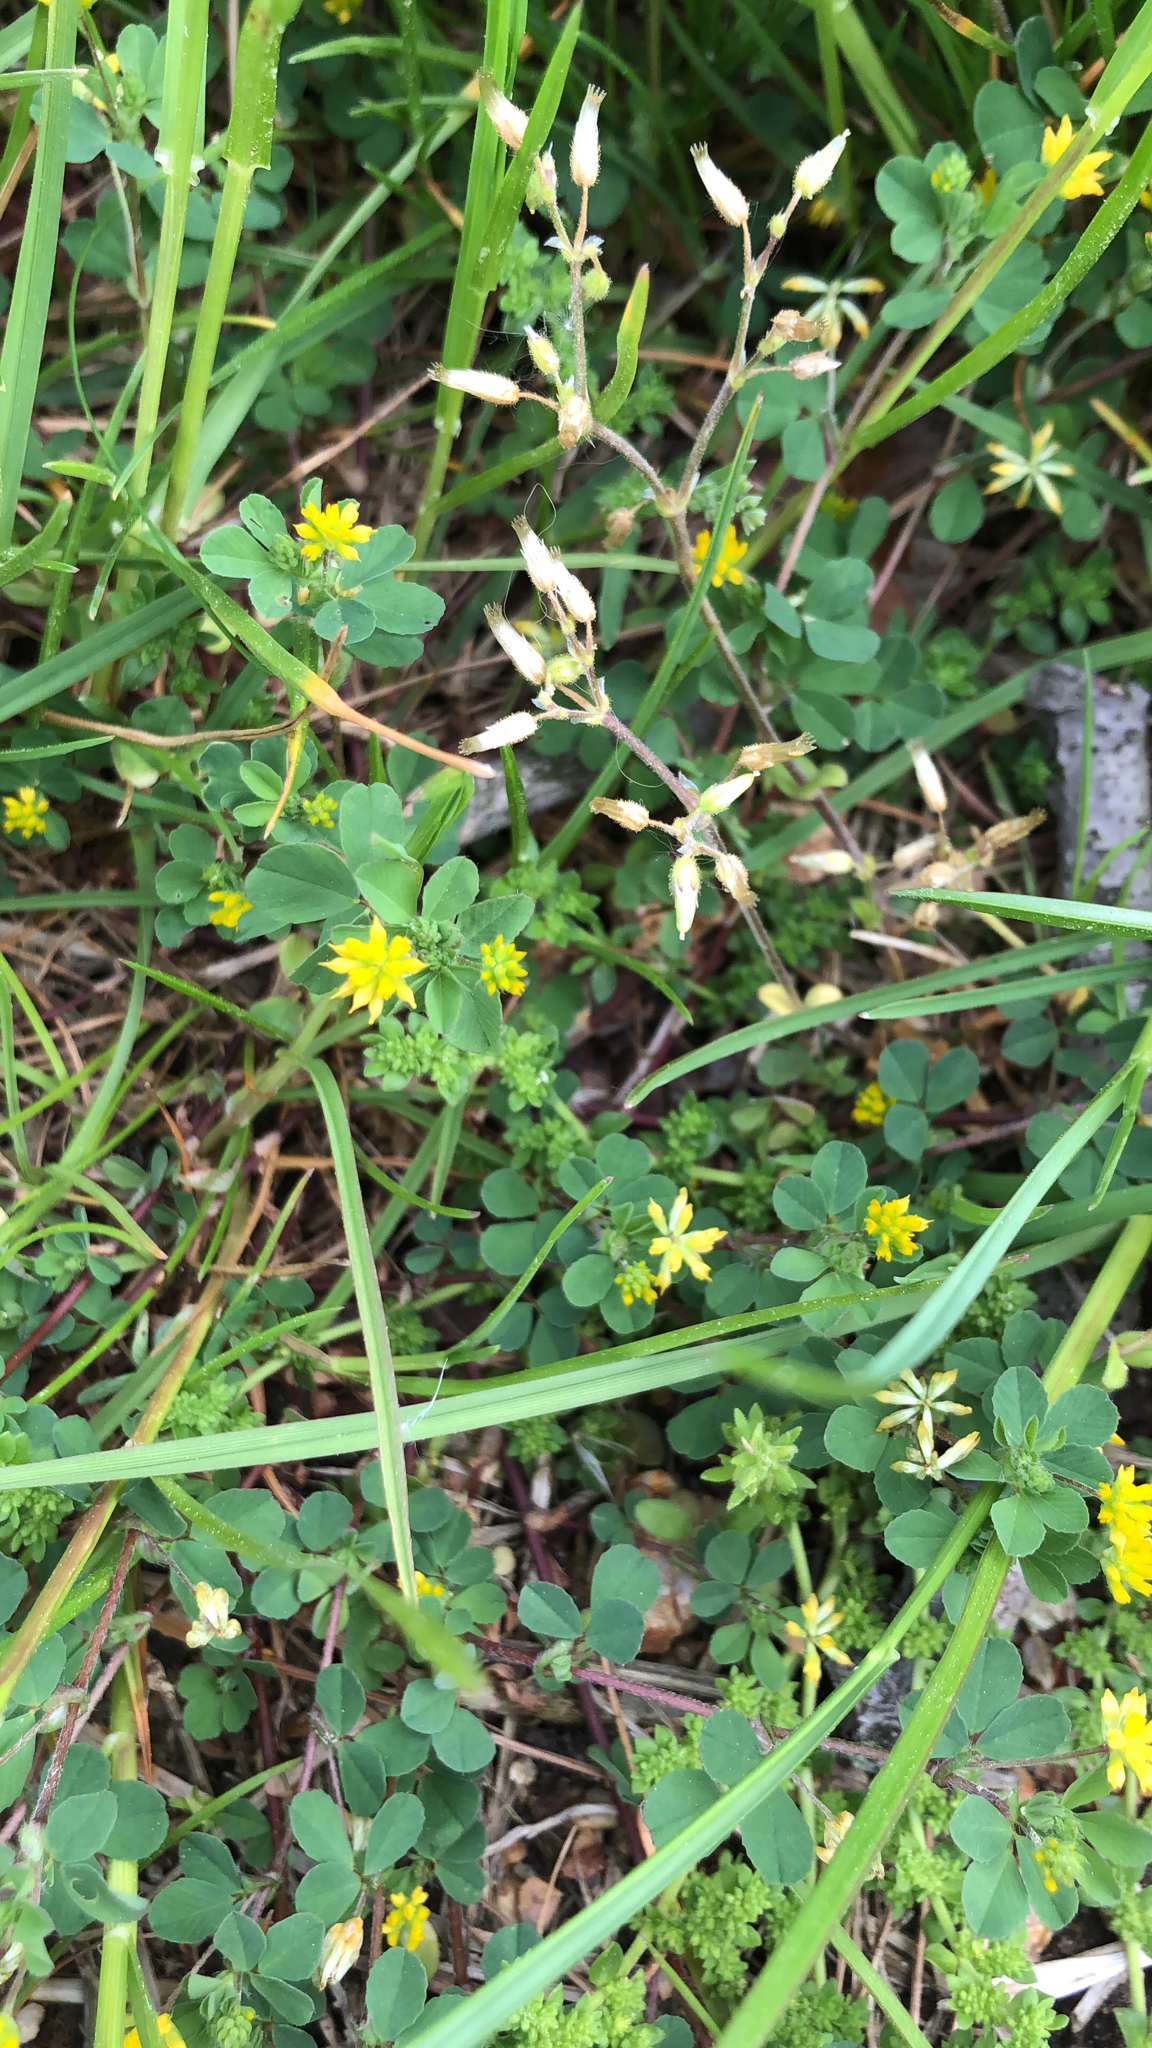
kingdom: Plantae
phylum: Tracheophyta
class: Magnoliopsida
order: Fabales
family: Fabaceae
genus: Trifolium
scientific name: Trifolium dubium
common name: Suckling clover
